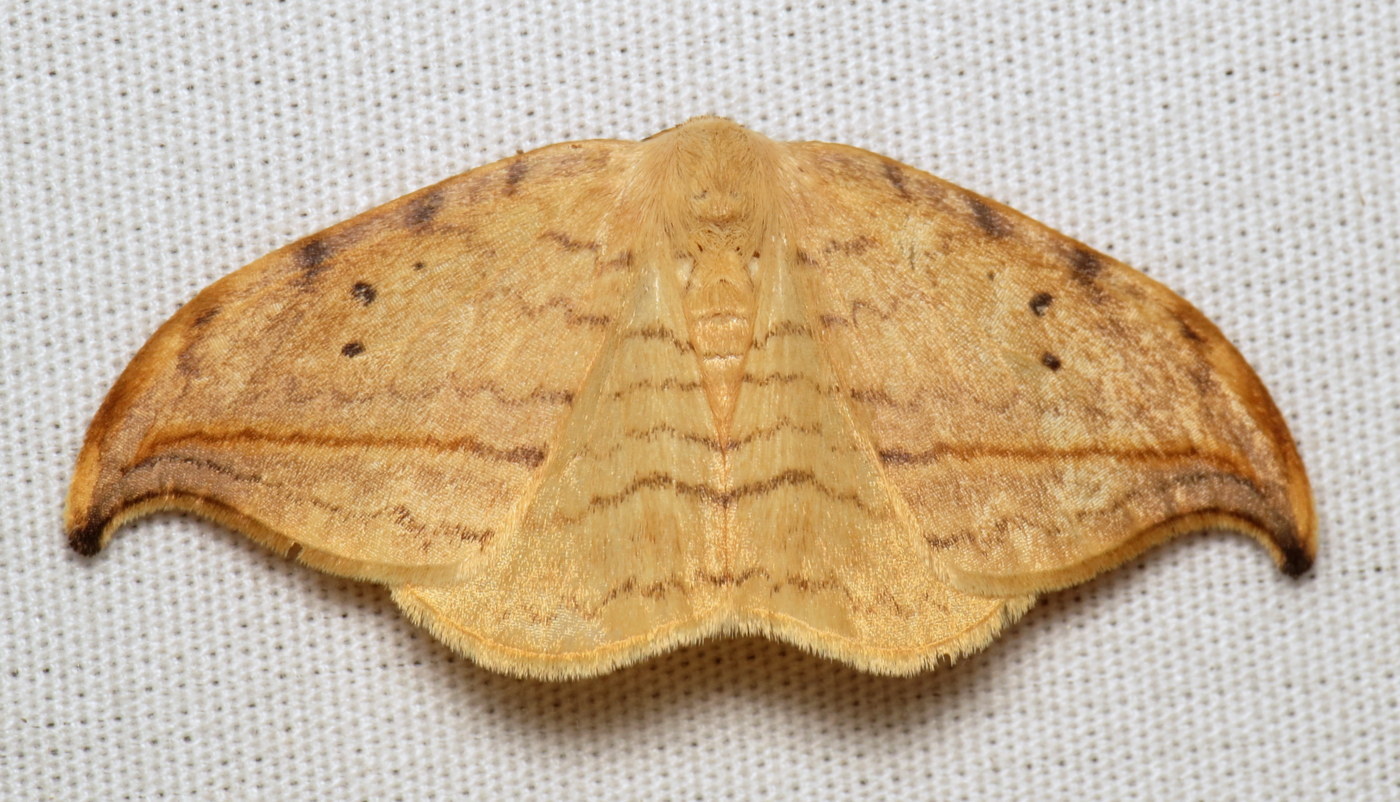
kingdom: Animalia
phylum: Arthropoda
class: Insecta
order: Lepidoptera
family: Drepanidae
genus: Drepana
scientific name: Drepana arcuata
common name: Arched hooktip moth
